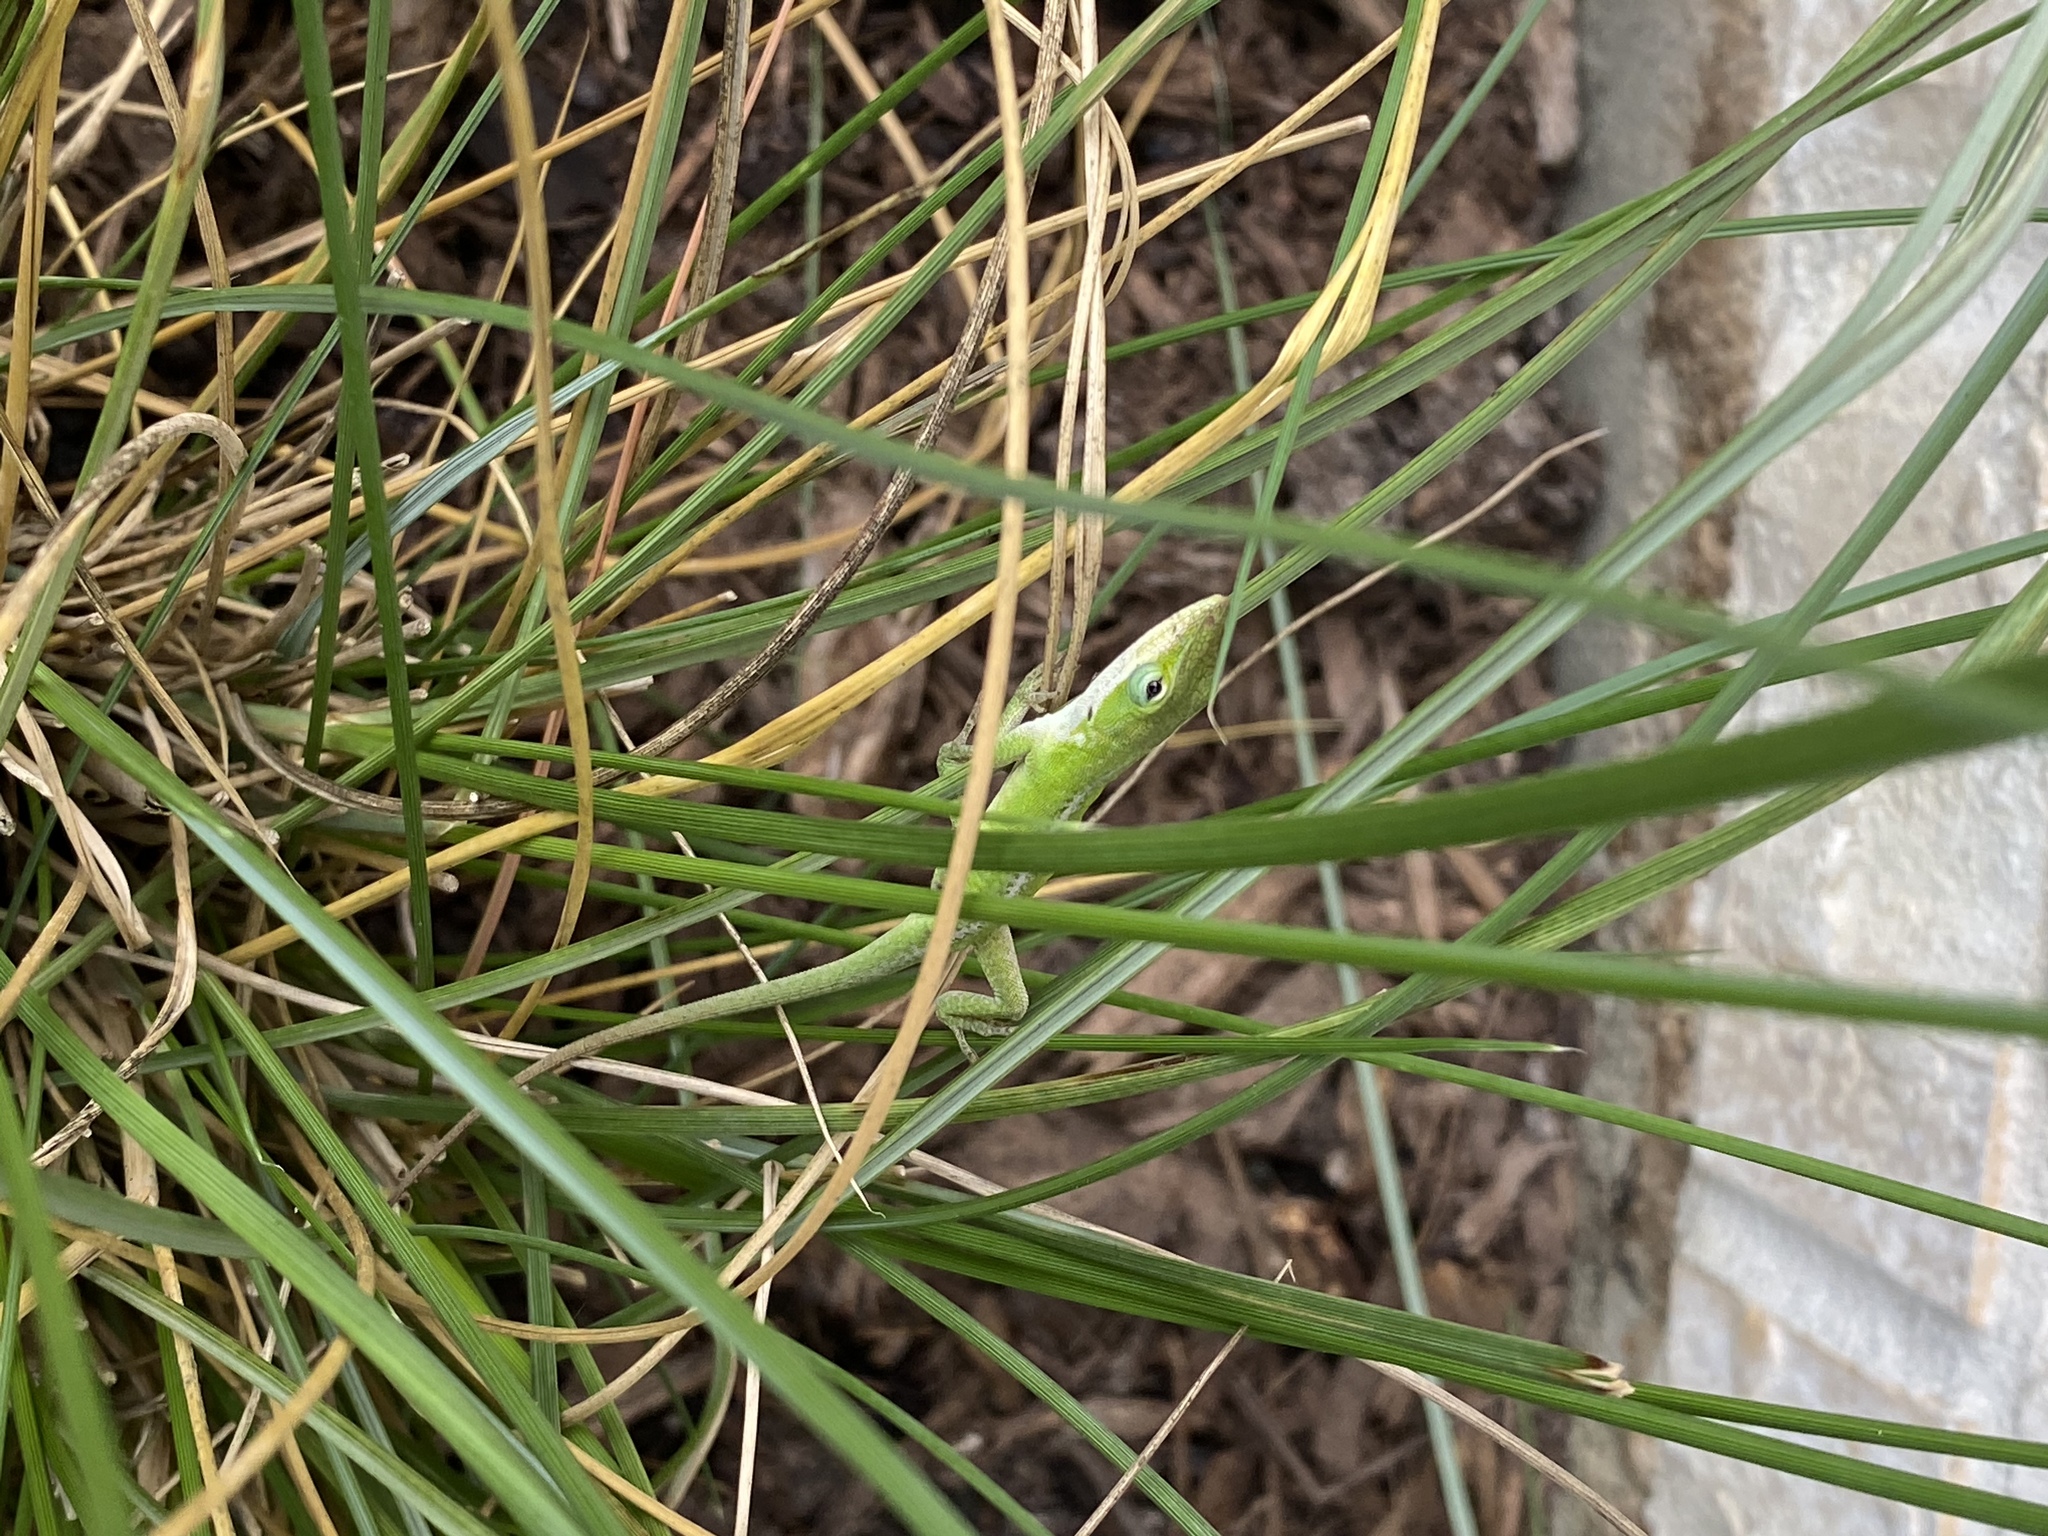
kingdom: Animalia
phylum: Chordata
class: Squamata
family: Dactyloidae
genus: Anolis
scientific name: Anolis carolinensis
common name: Green anole
